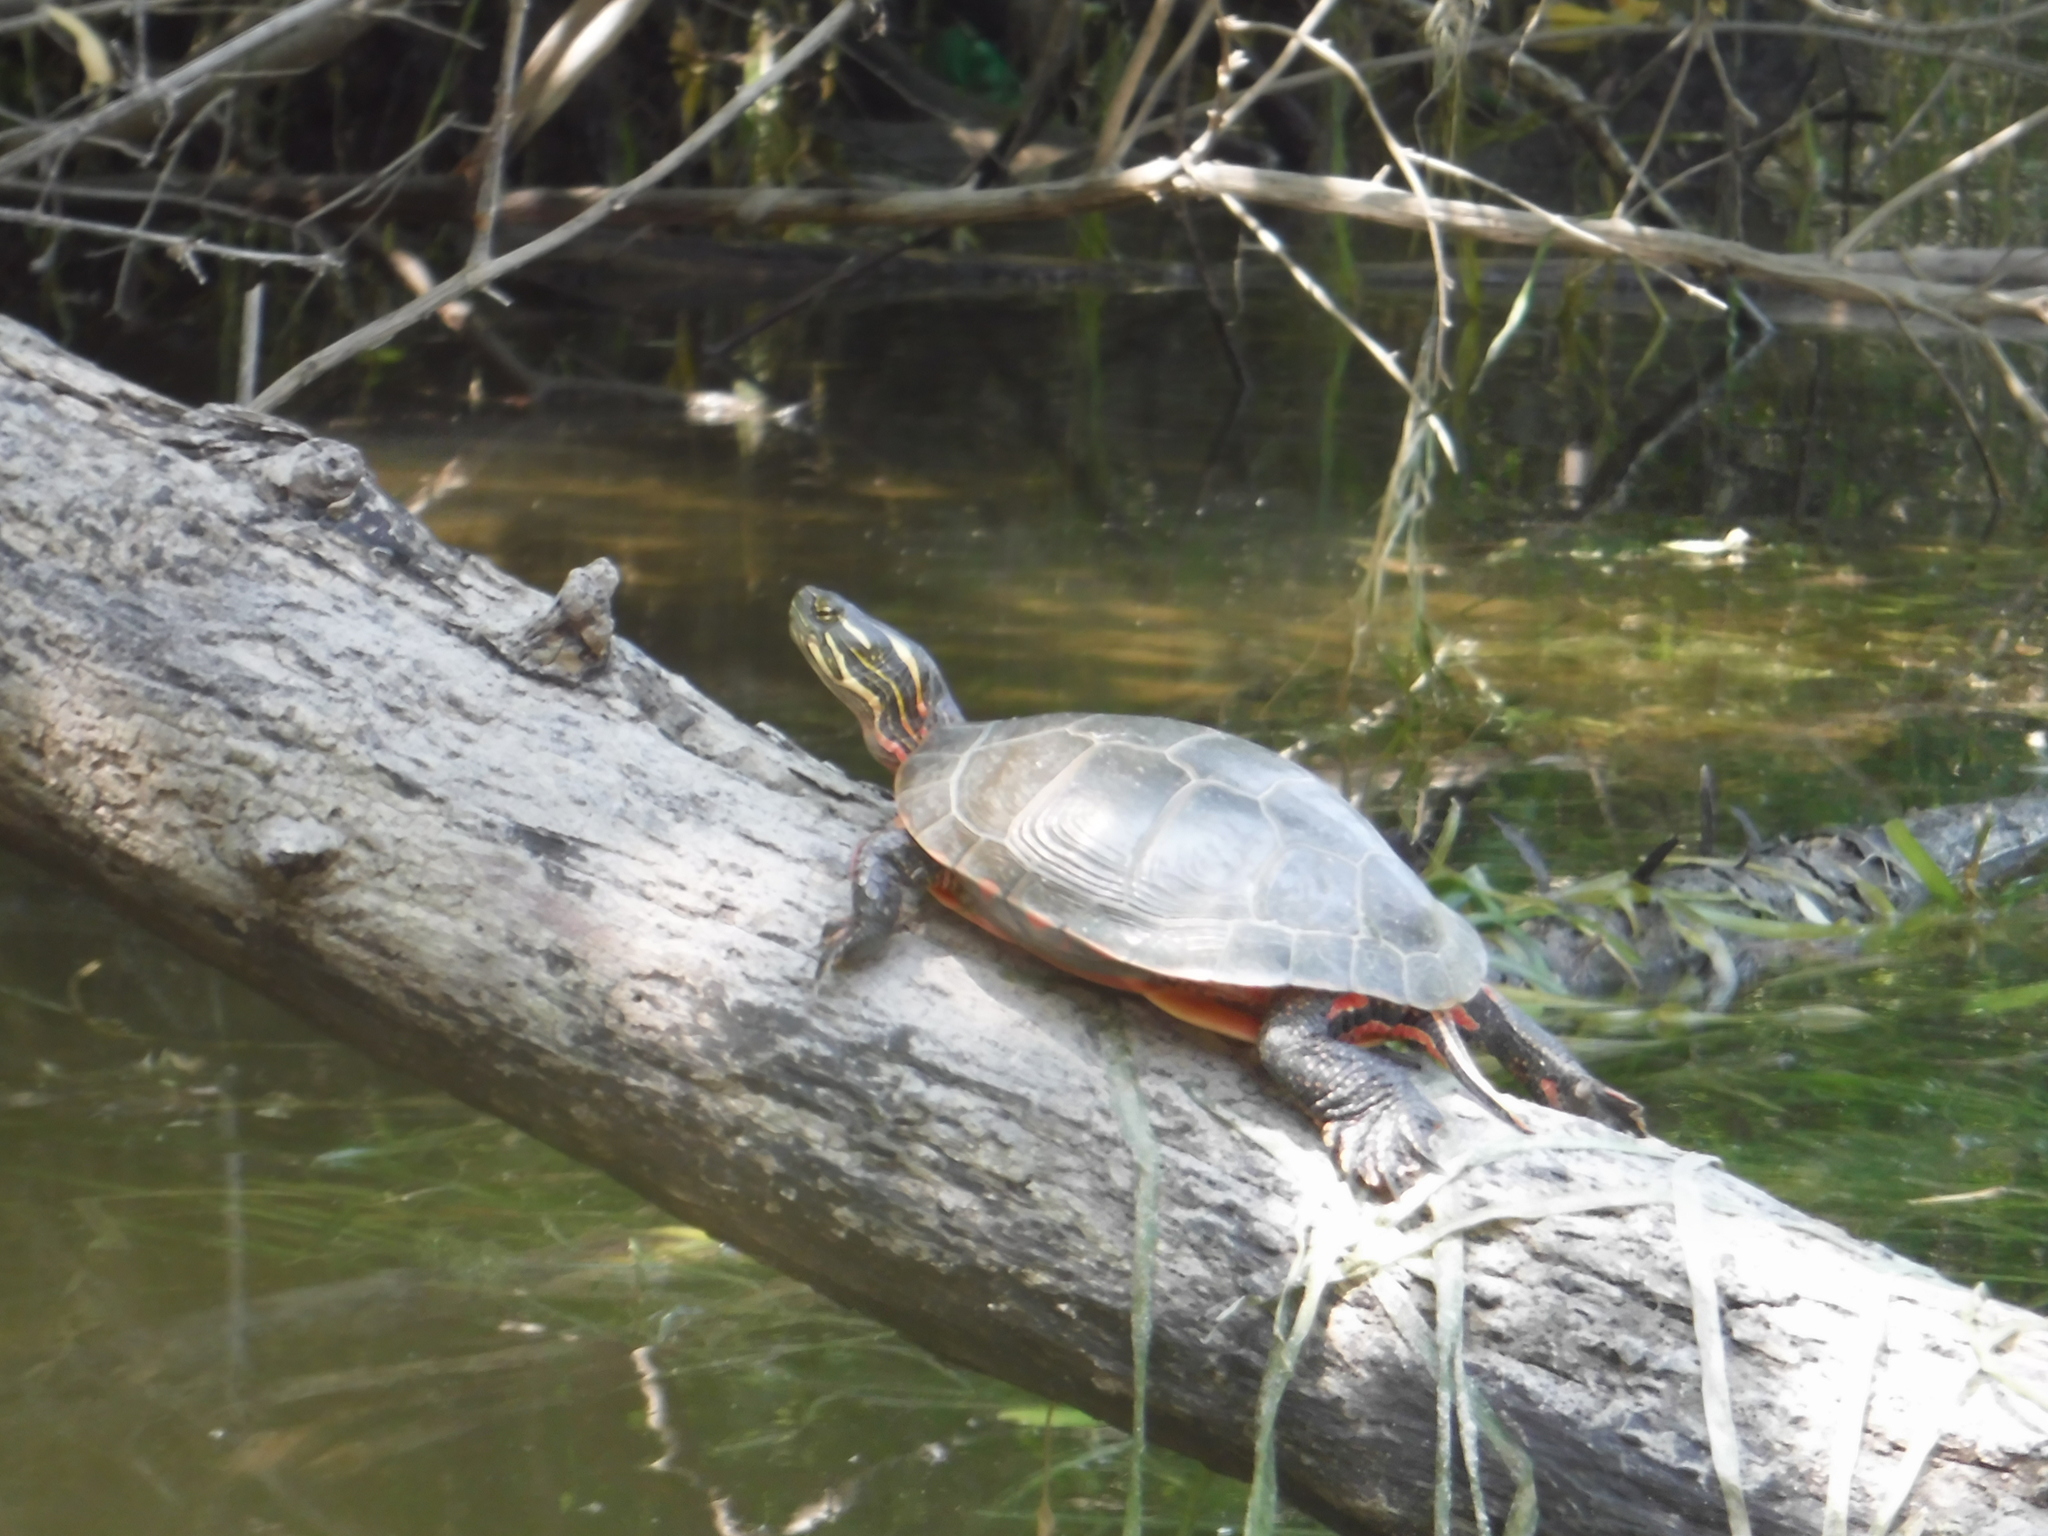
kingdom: Animalia
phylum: Chordata
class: Testudines
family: Emydidae
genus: Chrysemys
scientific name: Chrysemys picta
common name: Painted turtle
